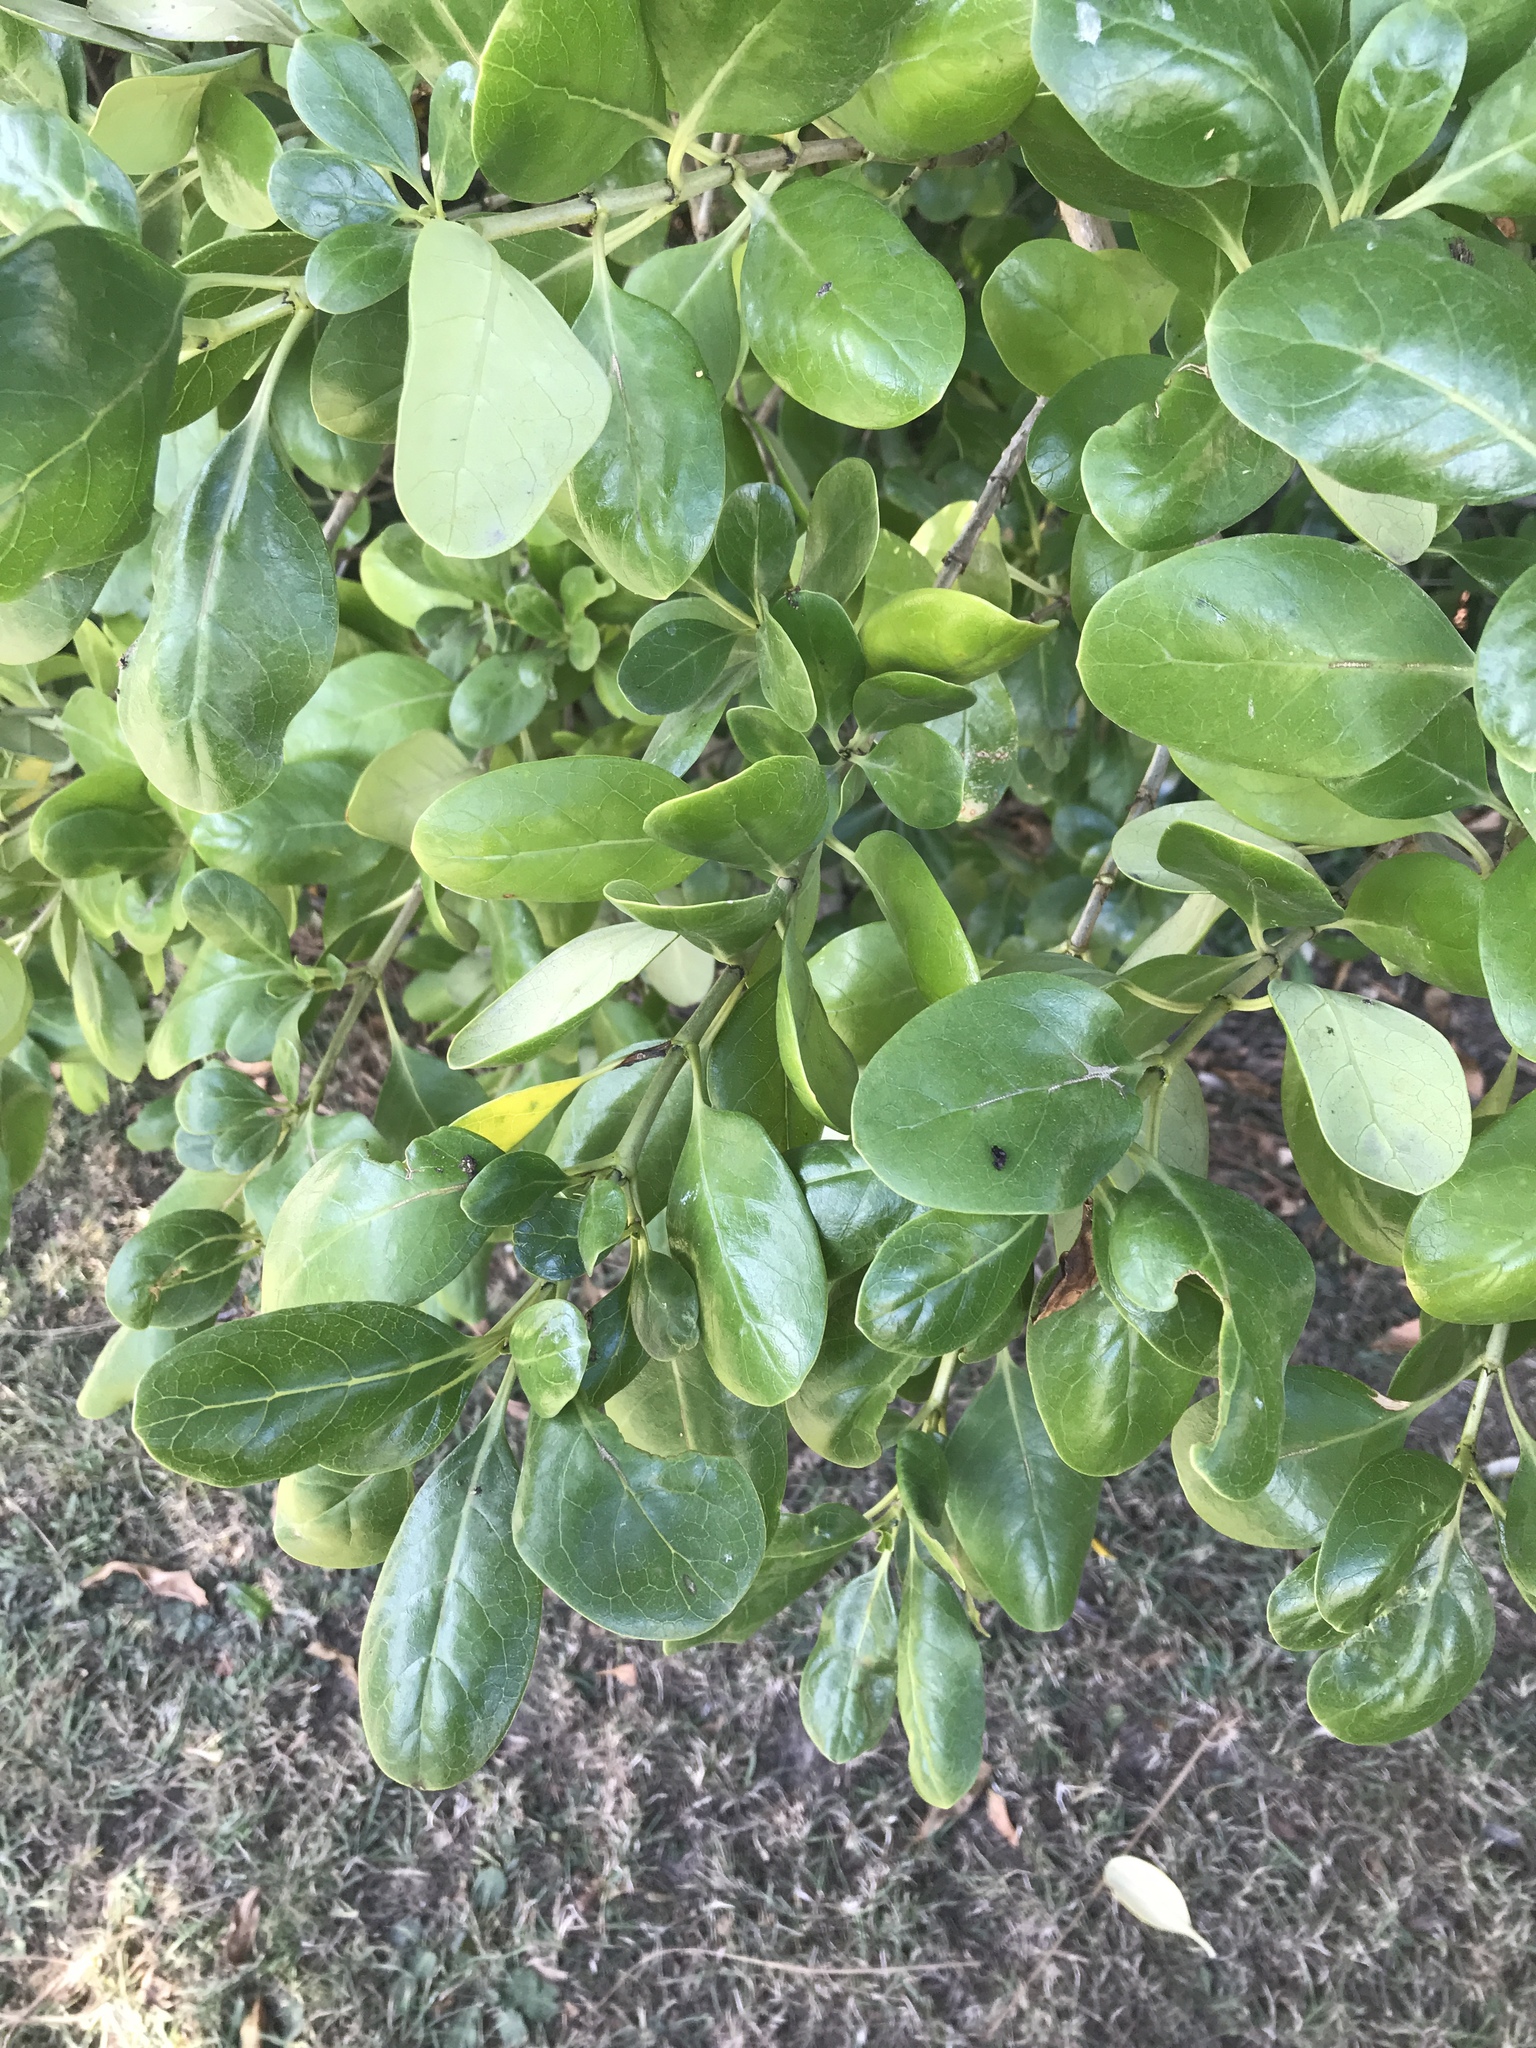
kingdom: Plantae
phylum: Tracheophyta
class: Magnoliopsida
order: Gentianales
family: Rubiaceae
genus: Coprosma
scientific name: Coprosma repens
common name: Tree bedstraw
